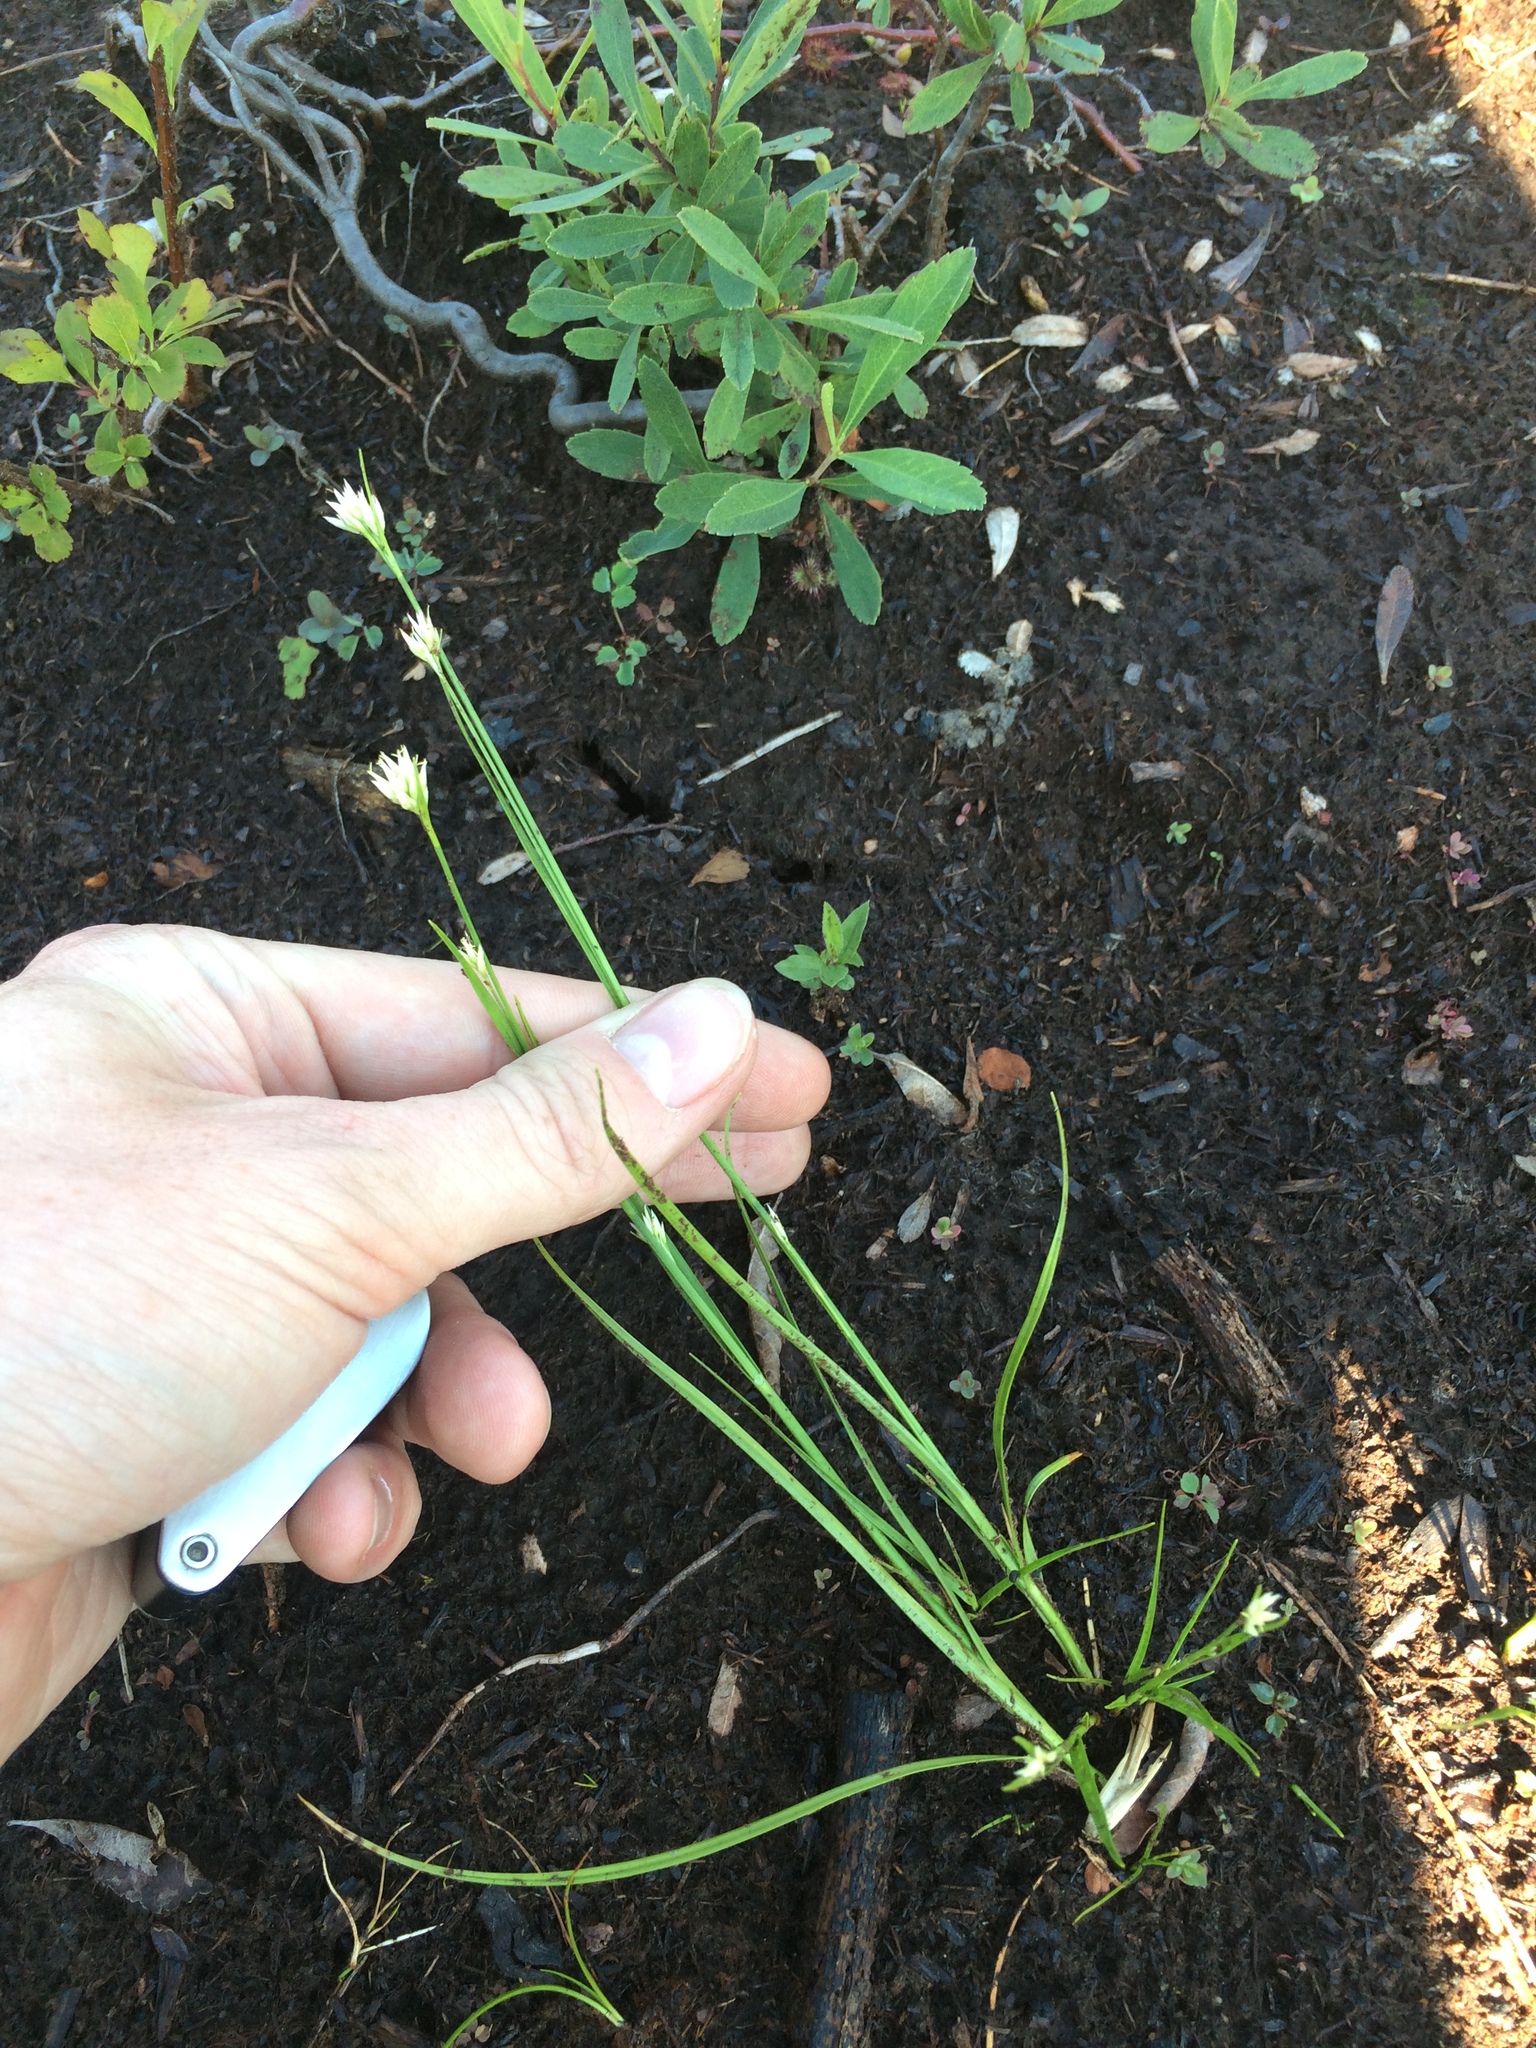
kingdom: Plantae
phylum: Tracheophyta
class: Liliopsida
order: Poales
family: Cyperaceae
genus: Rhynchospora
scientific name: Rhynchospora alba
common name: White beak-sedge
